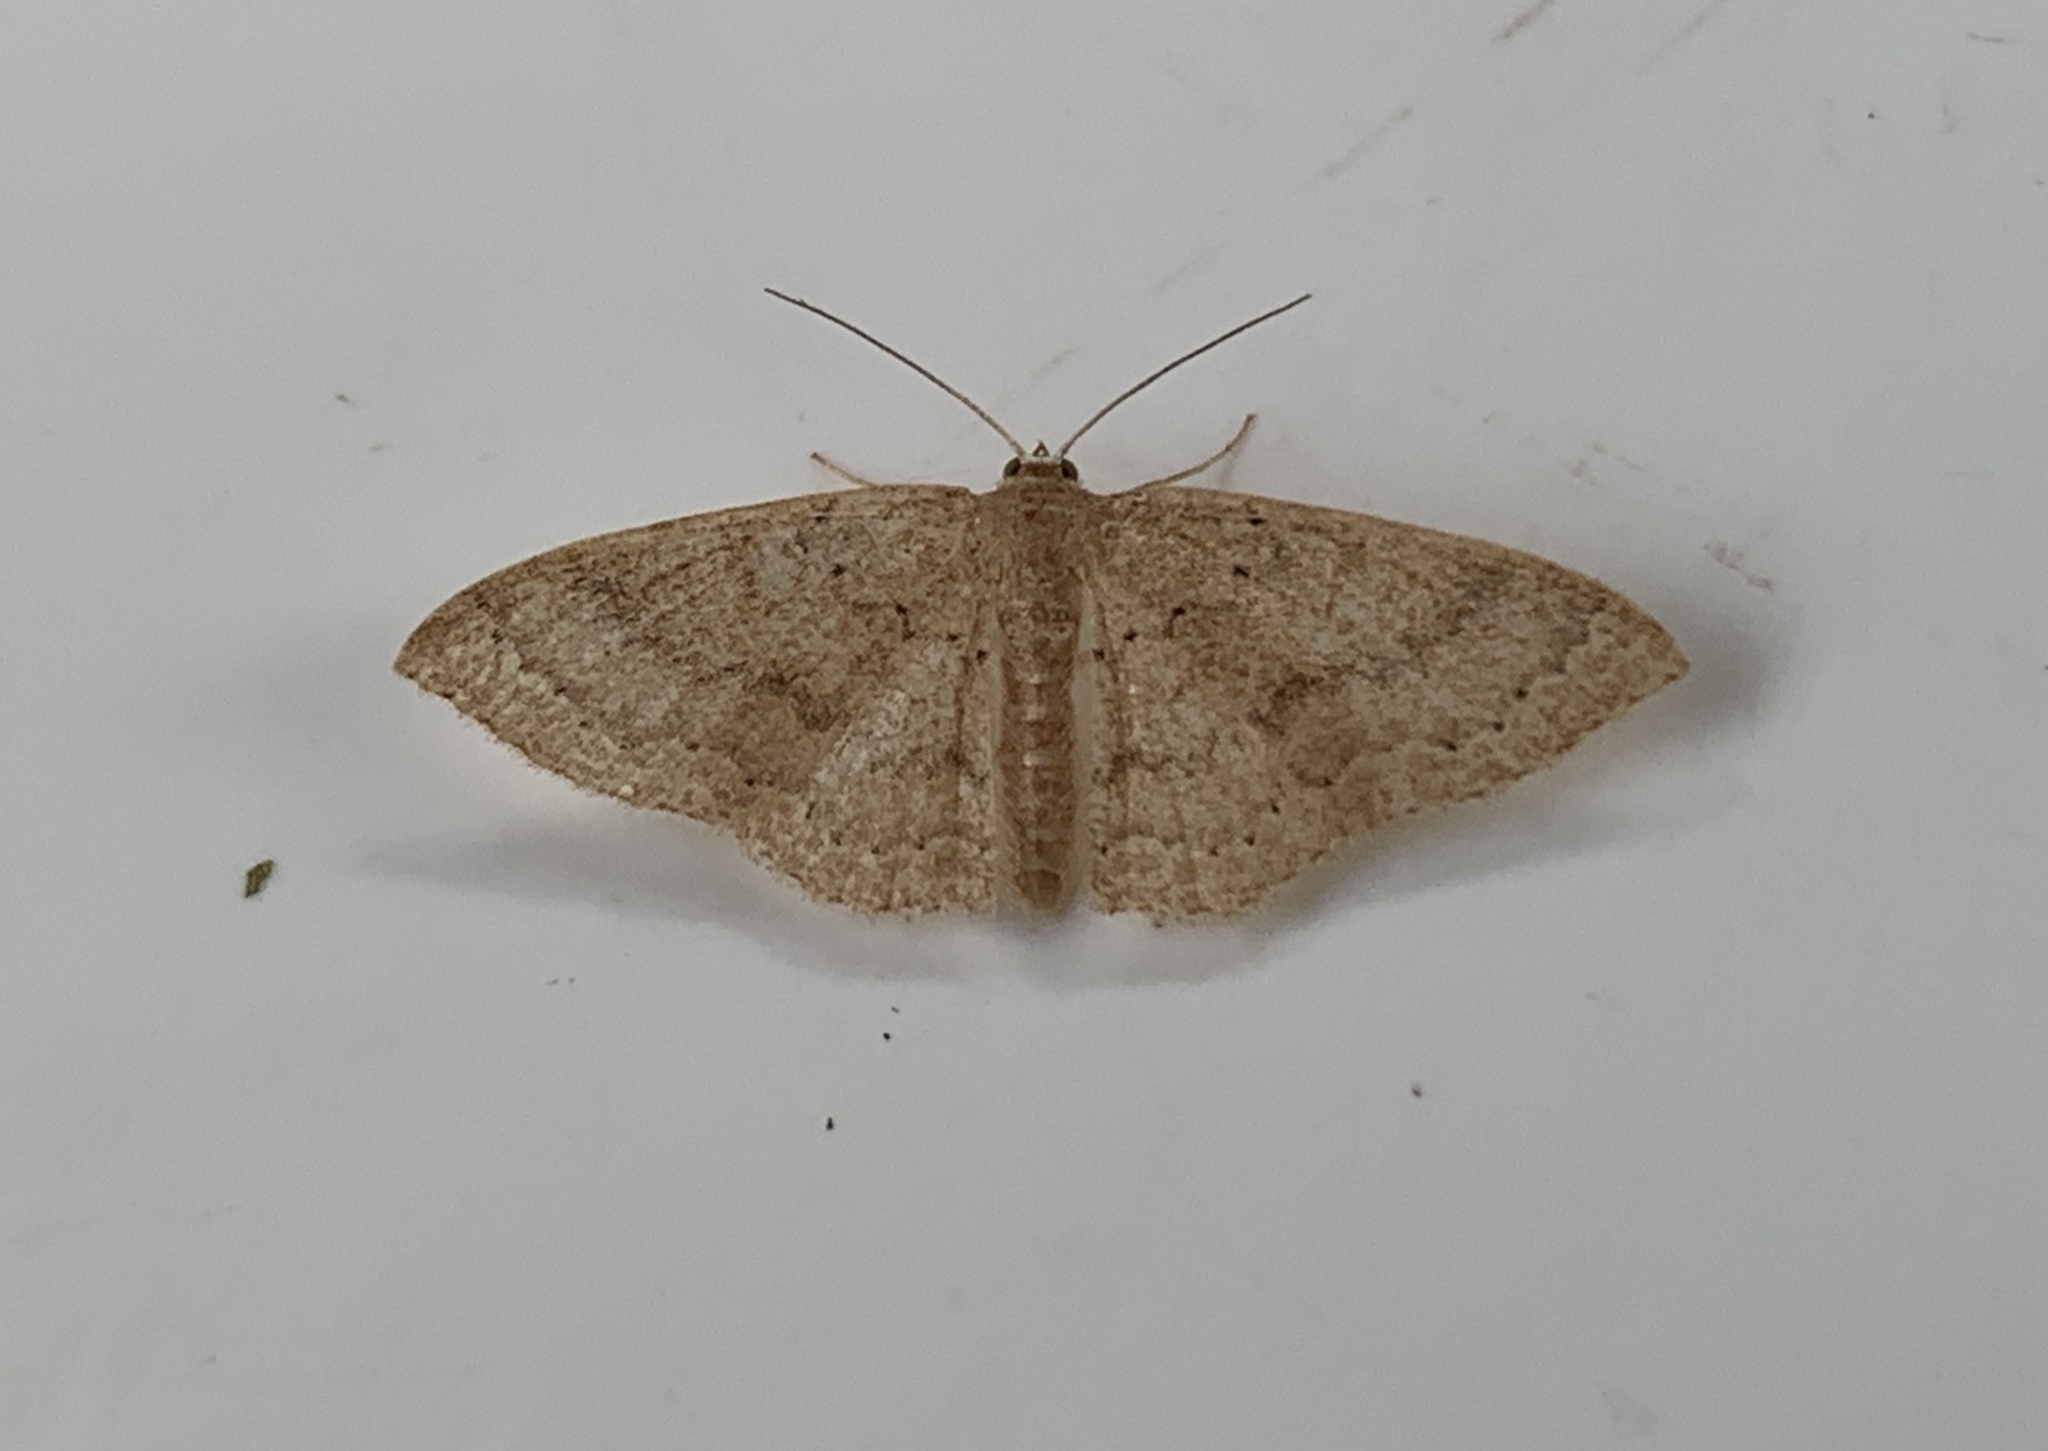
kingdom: Animalia
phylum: Arthropoda
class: Insecta
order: Lepidoptera
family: Geometridae
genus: Pleuroprucha
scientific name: Pleuroprucha insulsaria
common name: Common tan wave
